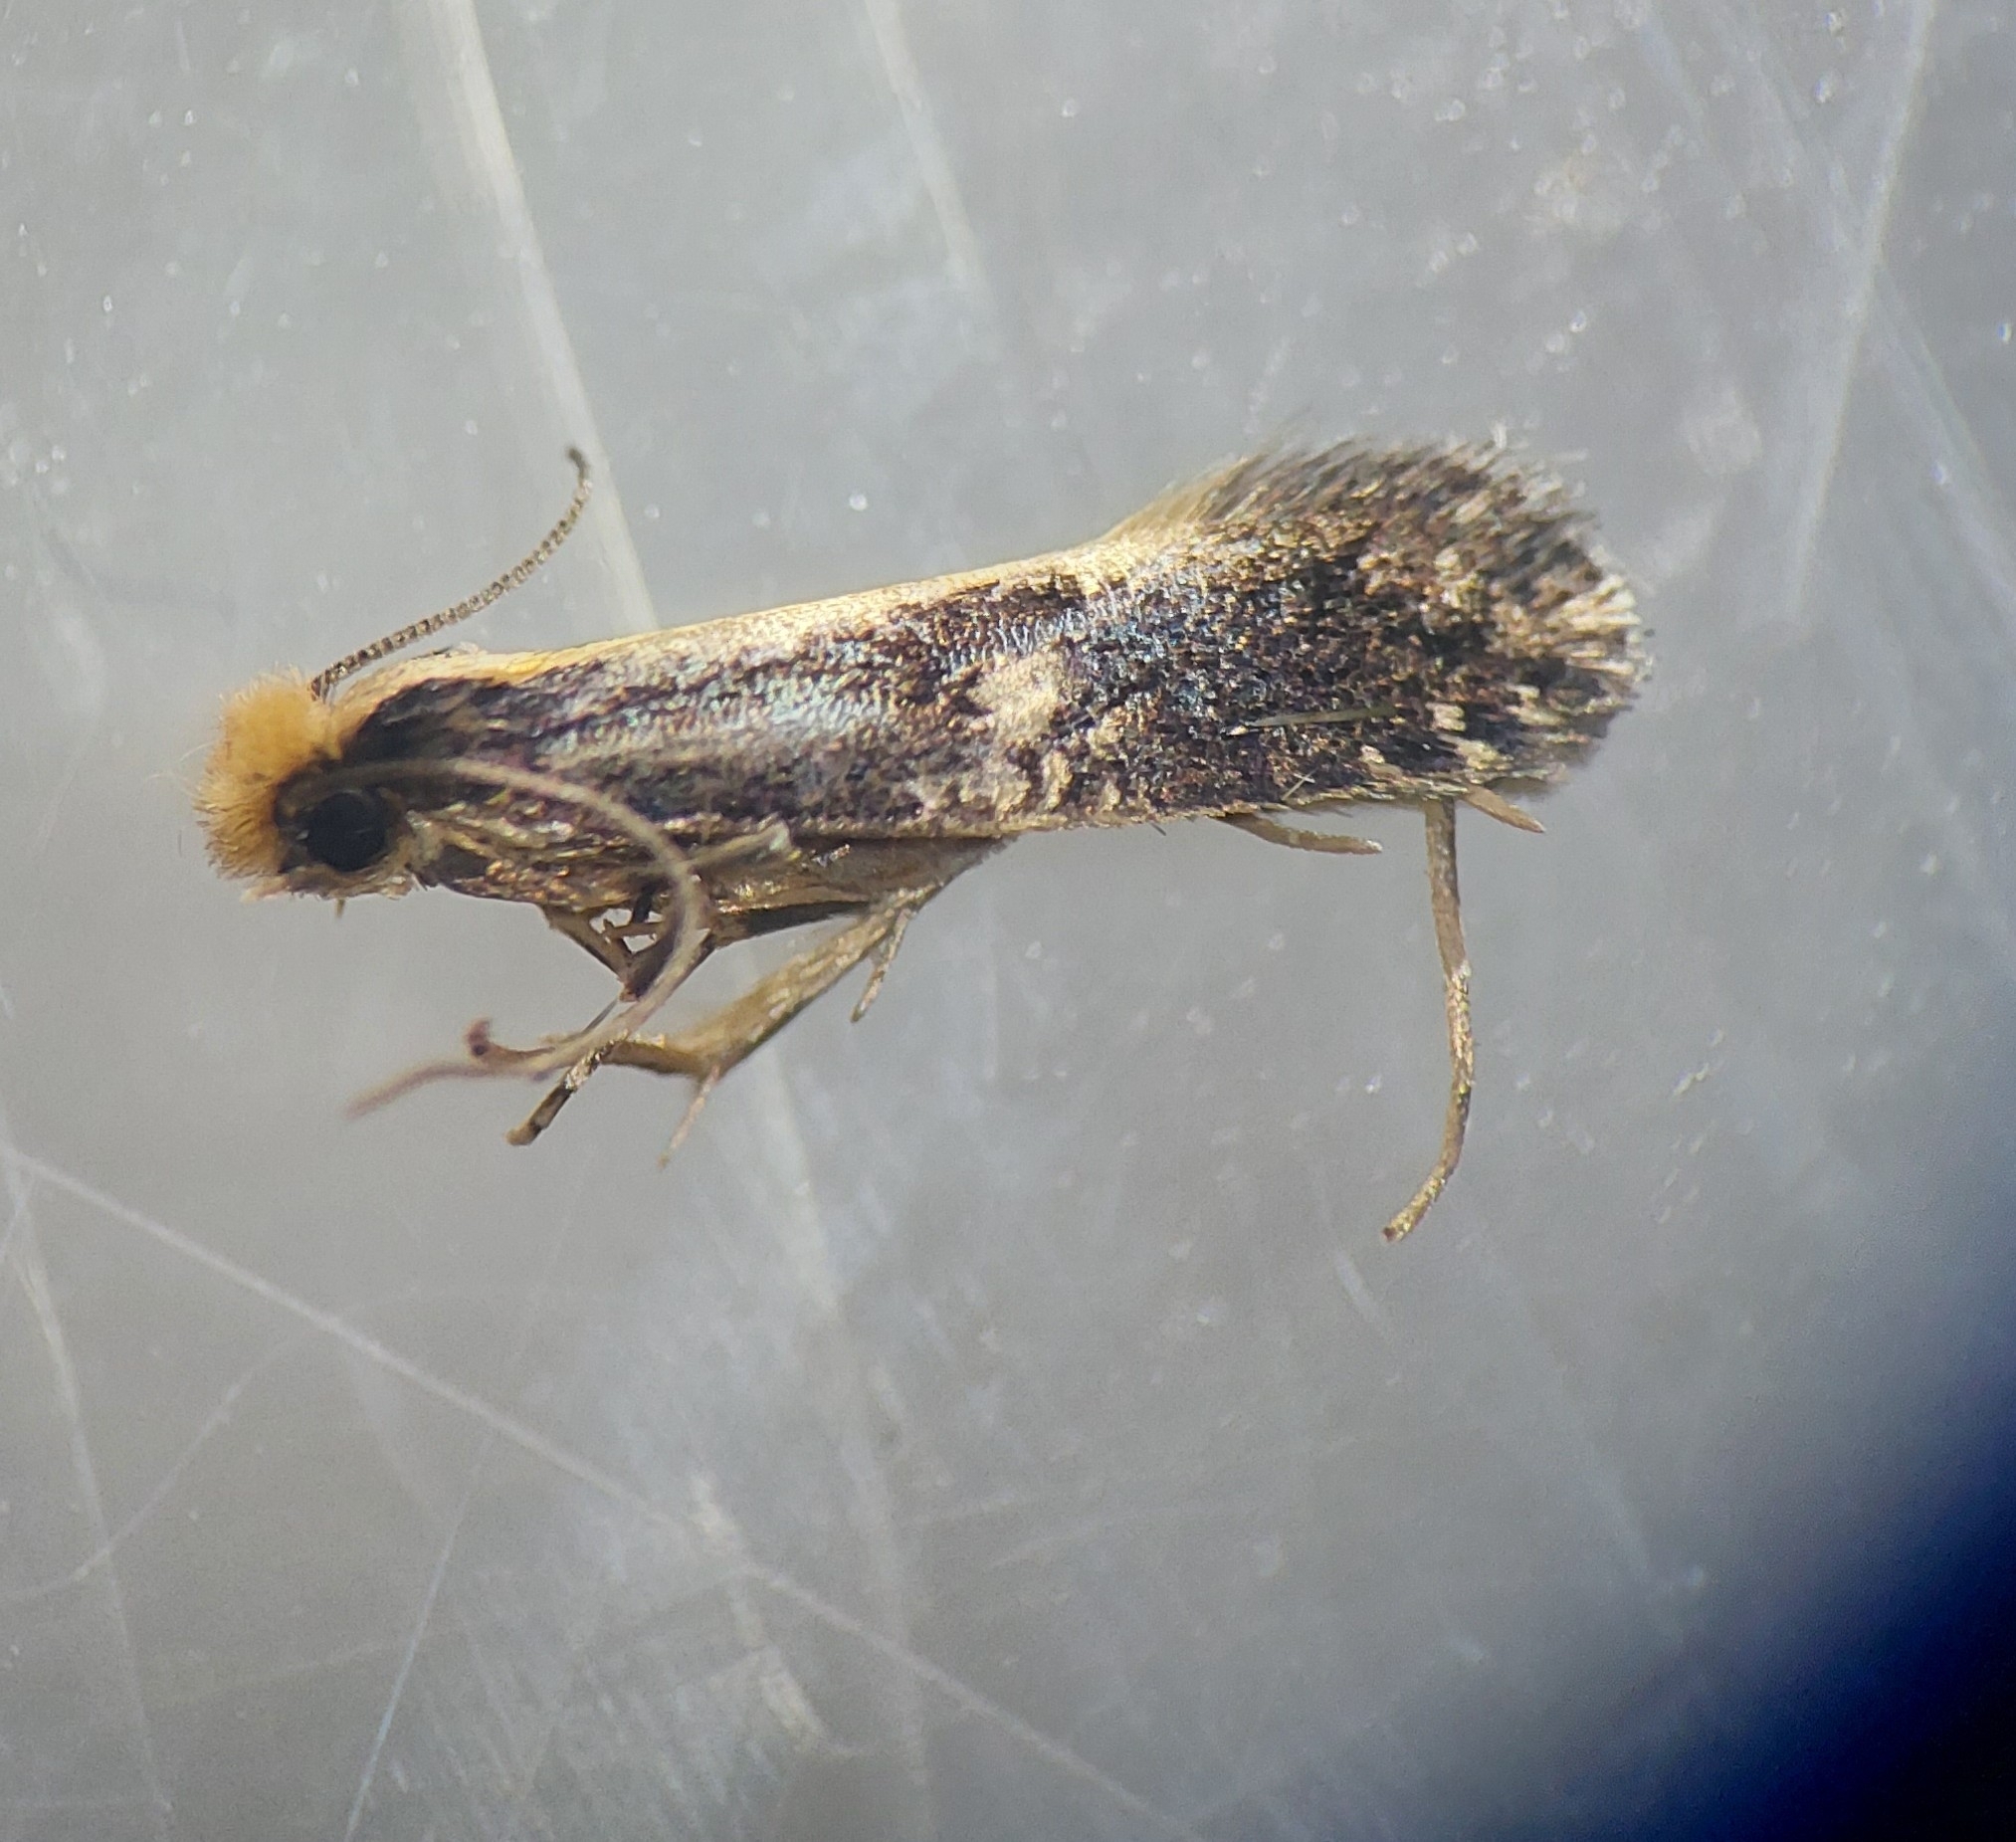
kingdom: Animalia
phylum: Arthropoda
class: Insecta
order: Lepidoptera
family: Tineidae
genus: Monopis
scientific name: Monopis obviella
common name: Tineid moth
